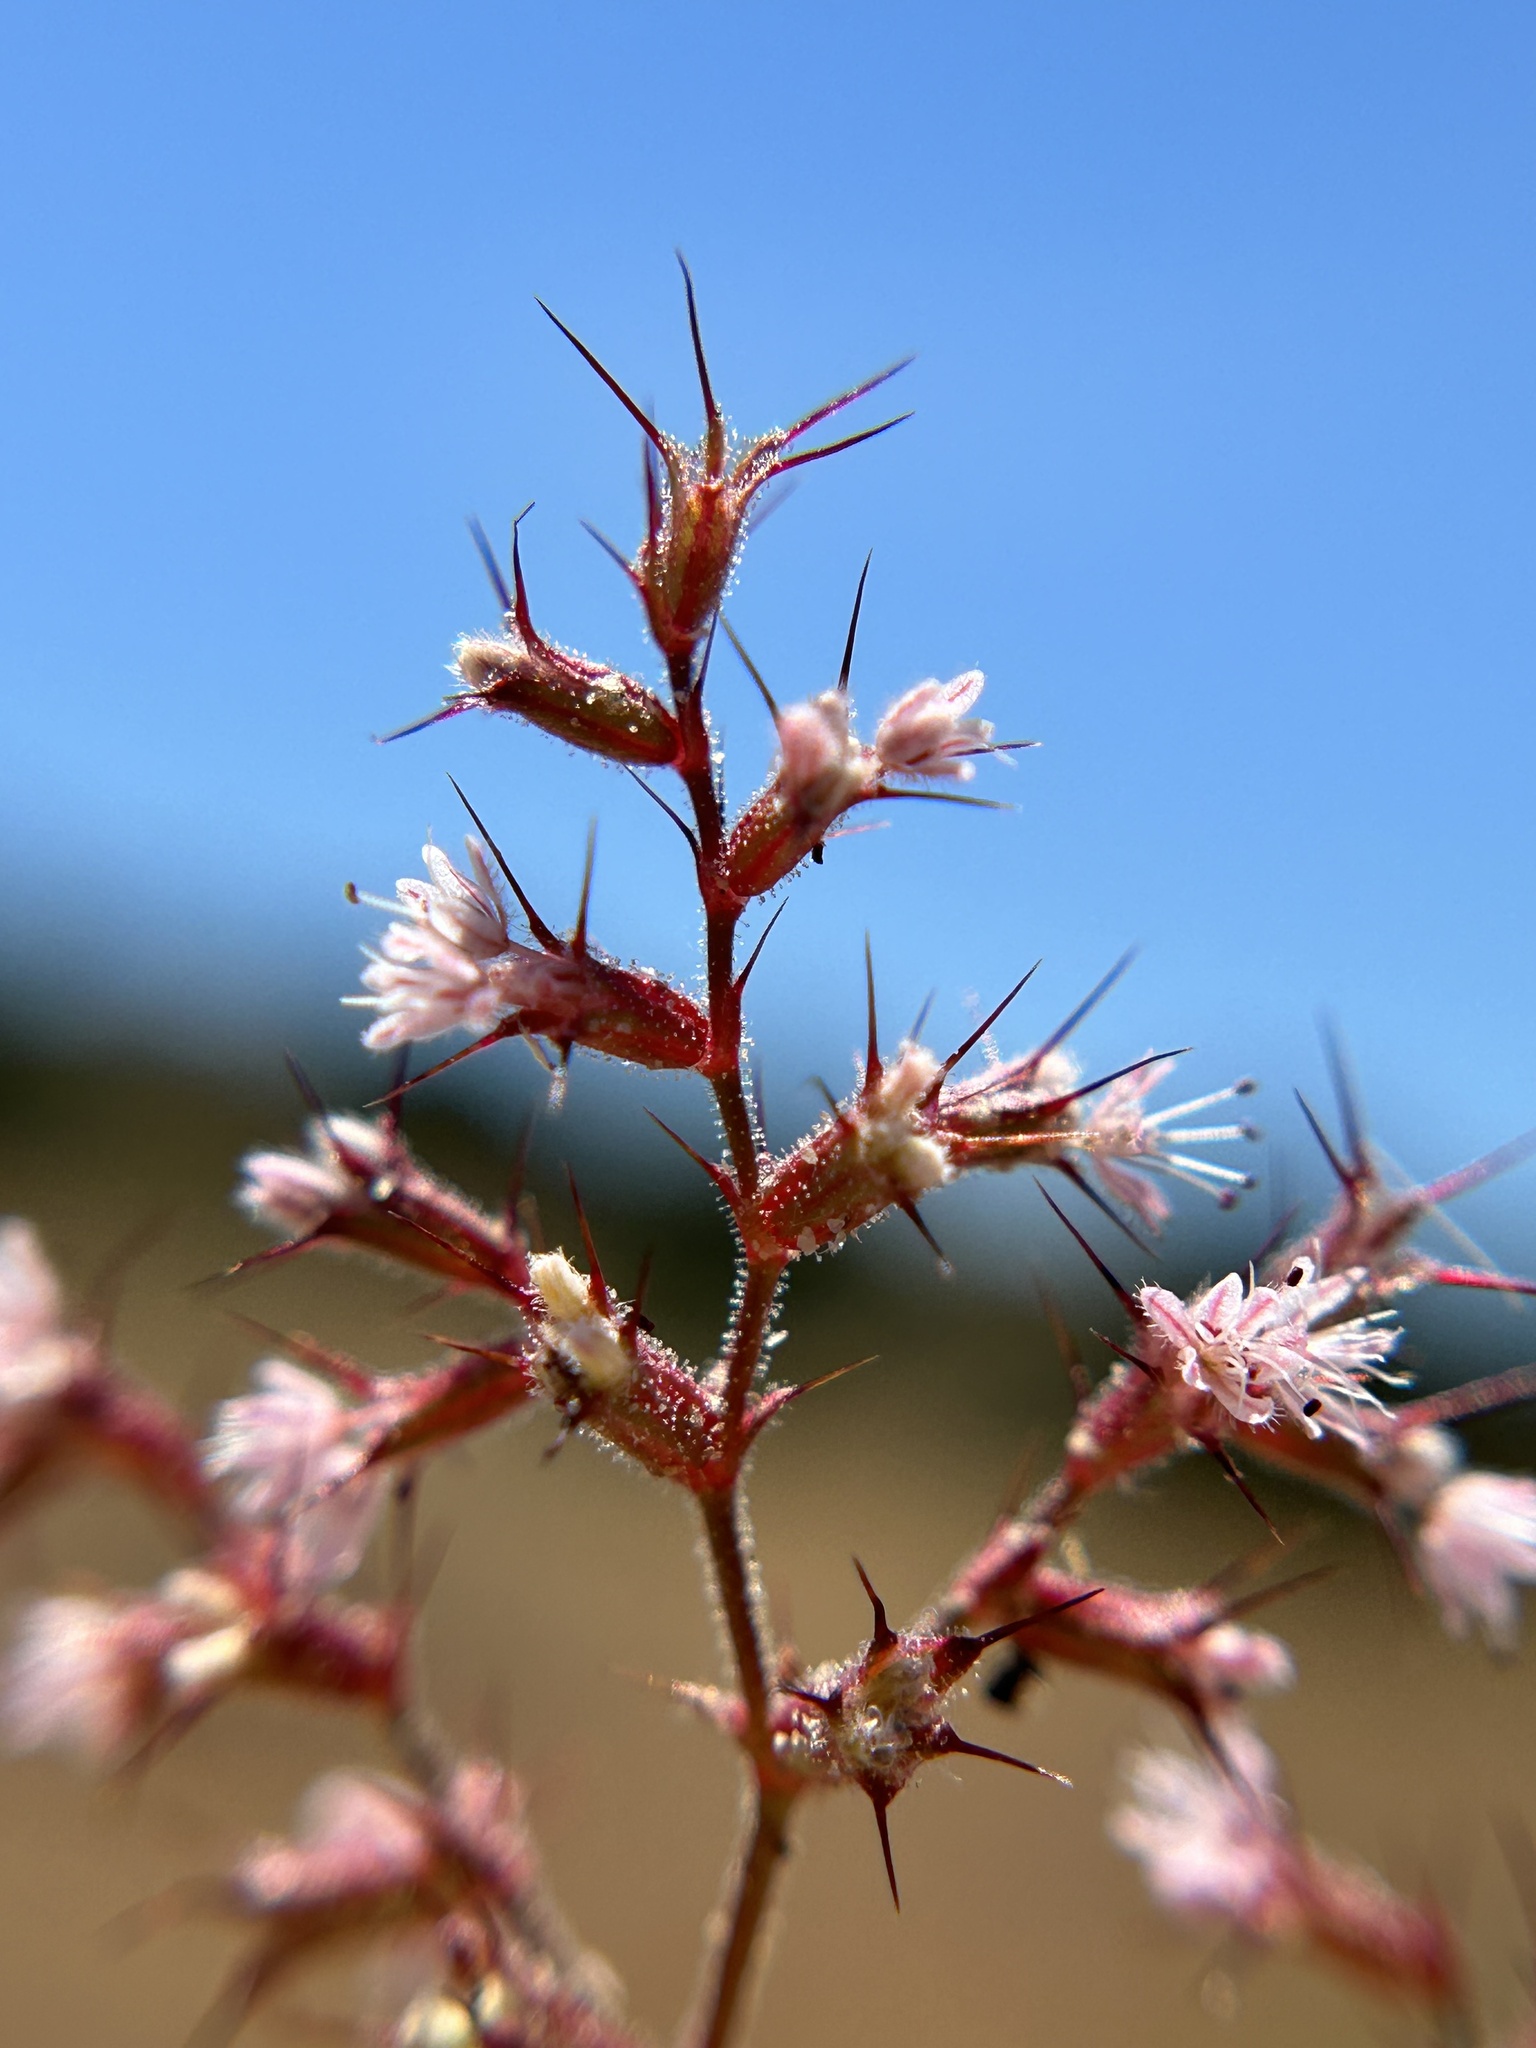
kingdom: Plantae
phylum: Tracheophyta
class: Magnoliopsida
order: Caryophyllales
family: Polygonaceae
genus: Aristocapsa
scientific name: Aristocapsa insignis
